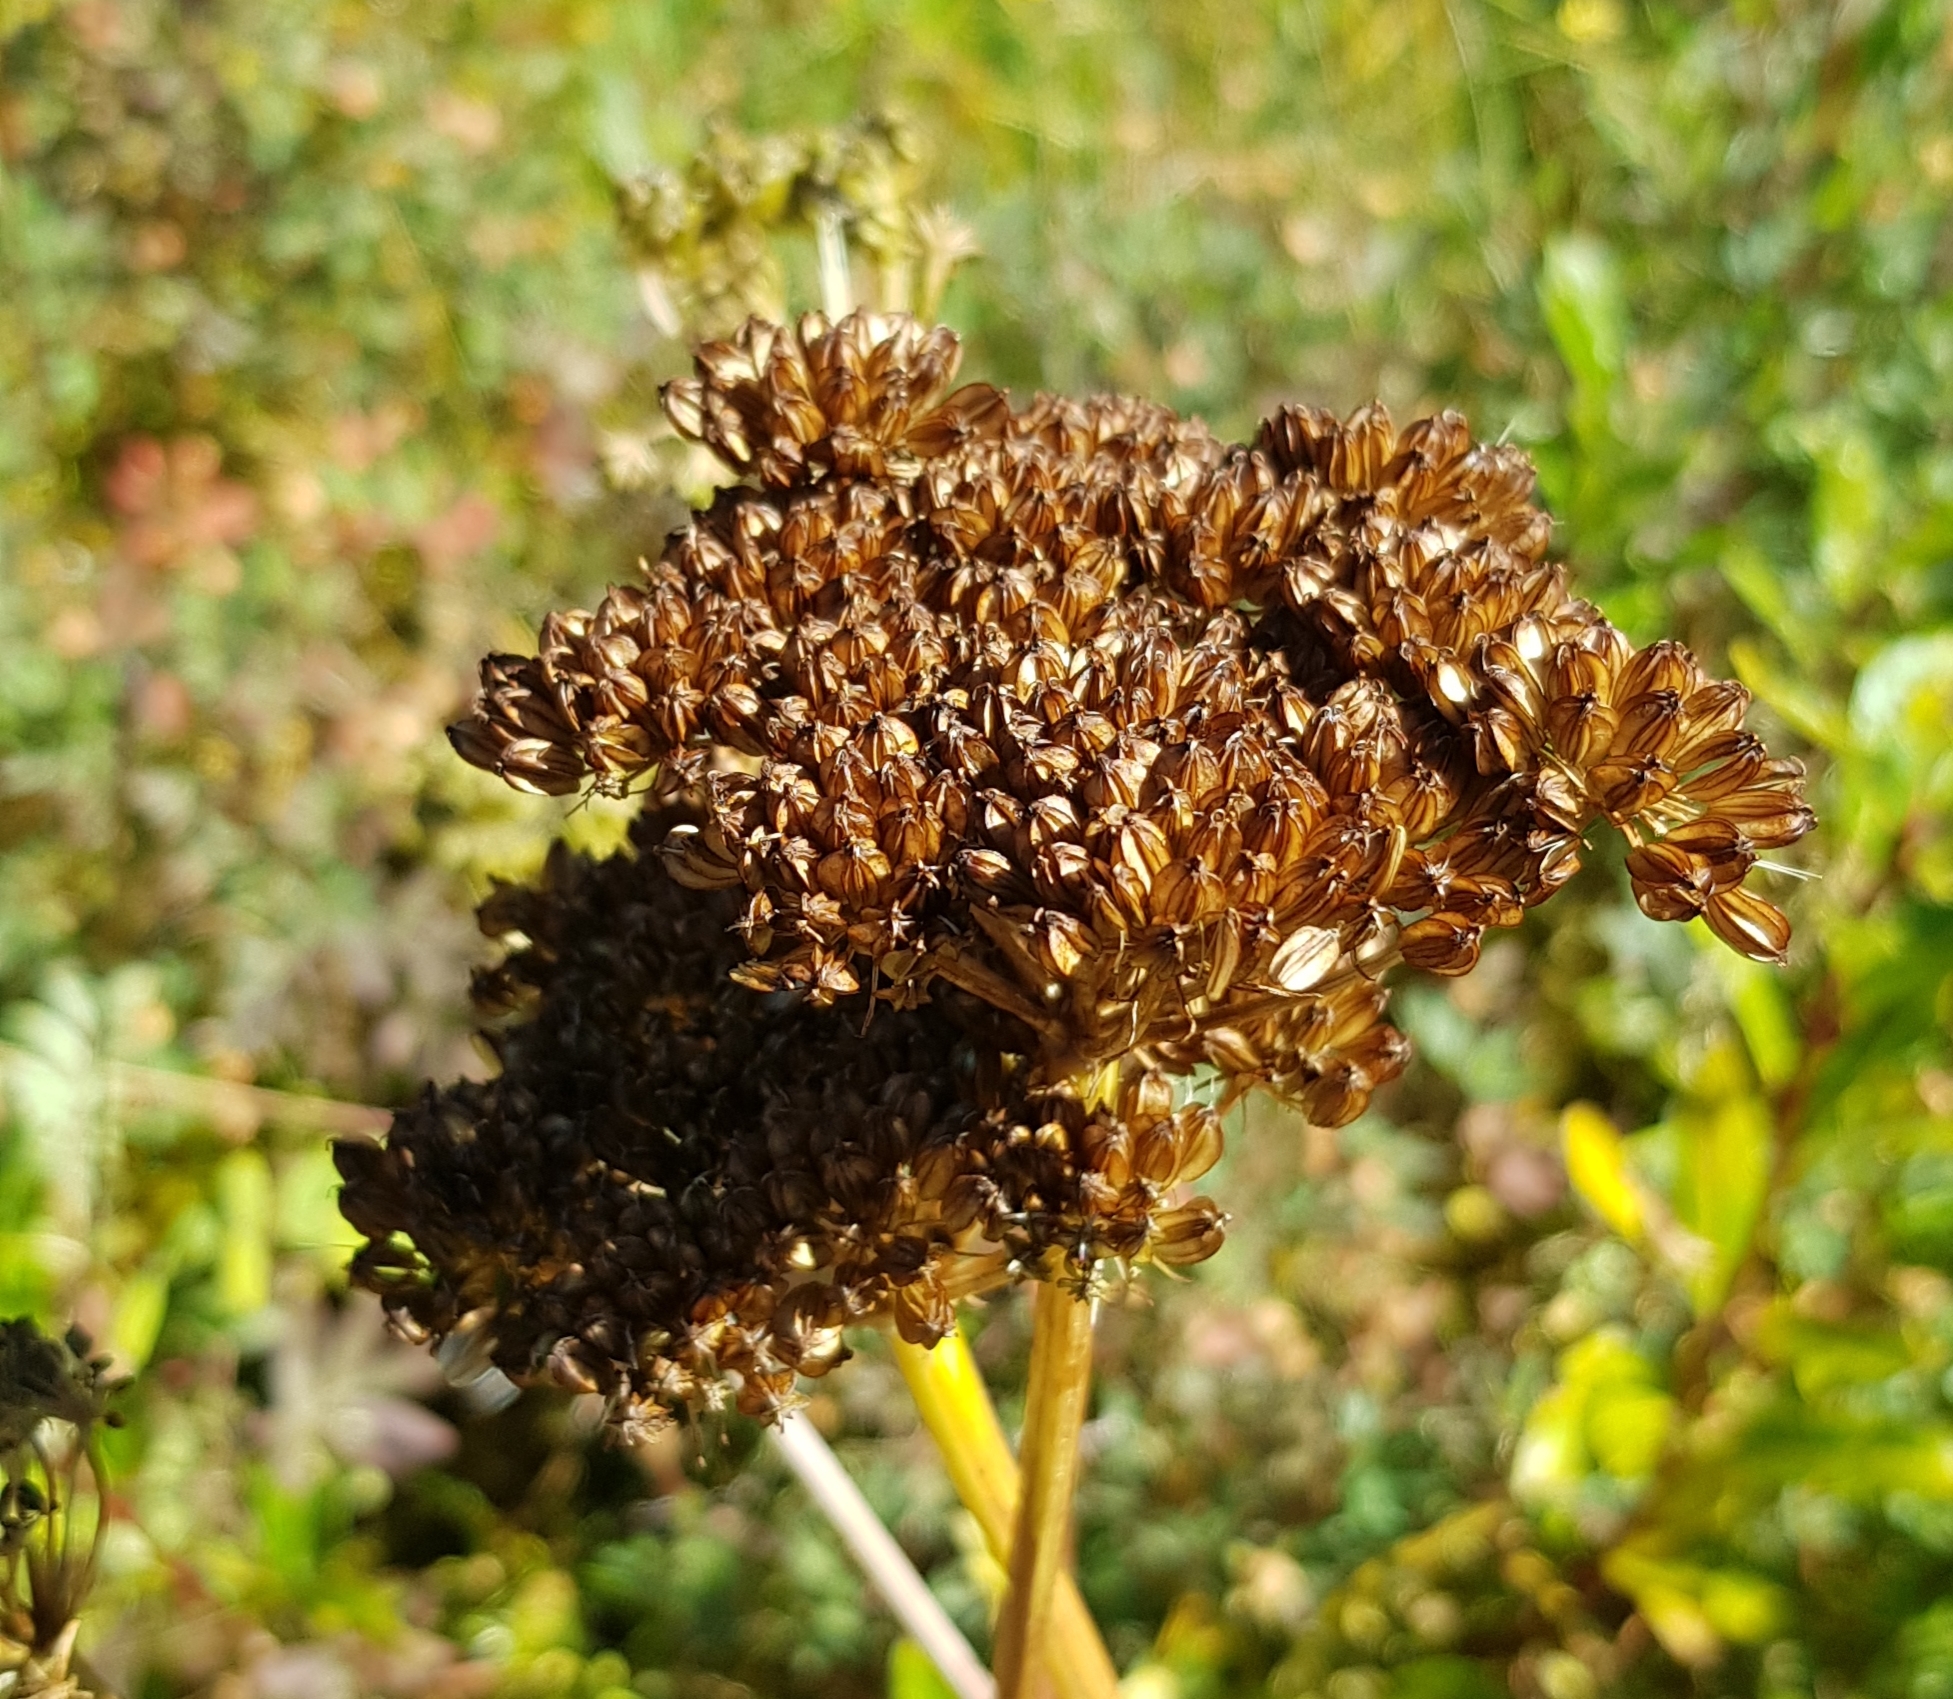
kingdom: Plantae
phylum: Tracheophyta
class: Magnoliopsida
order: Apiales
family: Apiaceae
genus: Conioselinum
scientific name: Conioselinum tataricum
